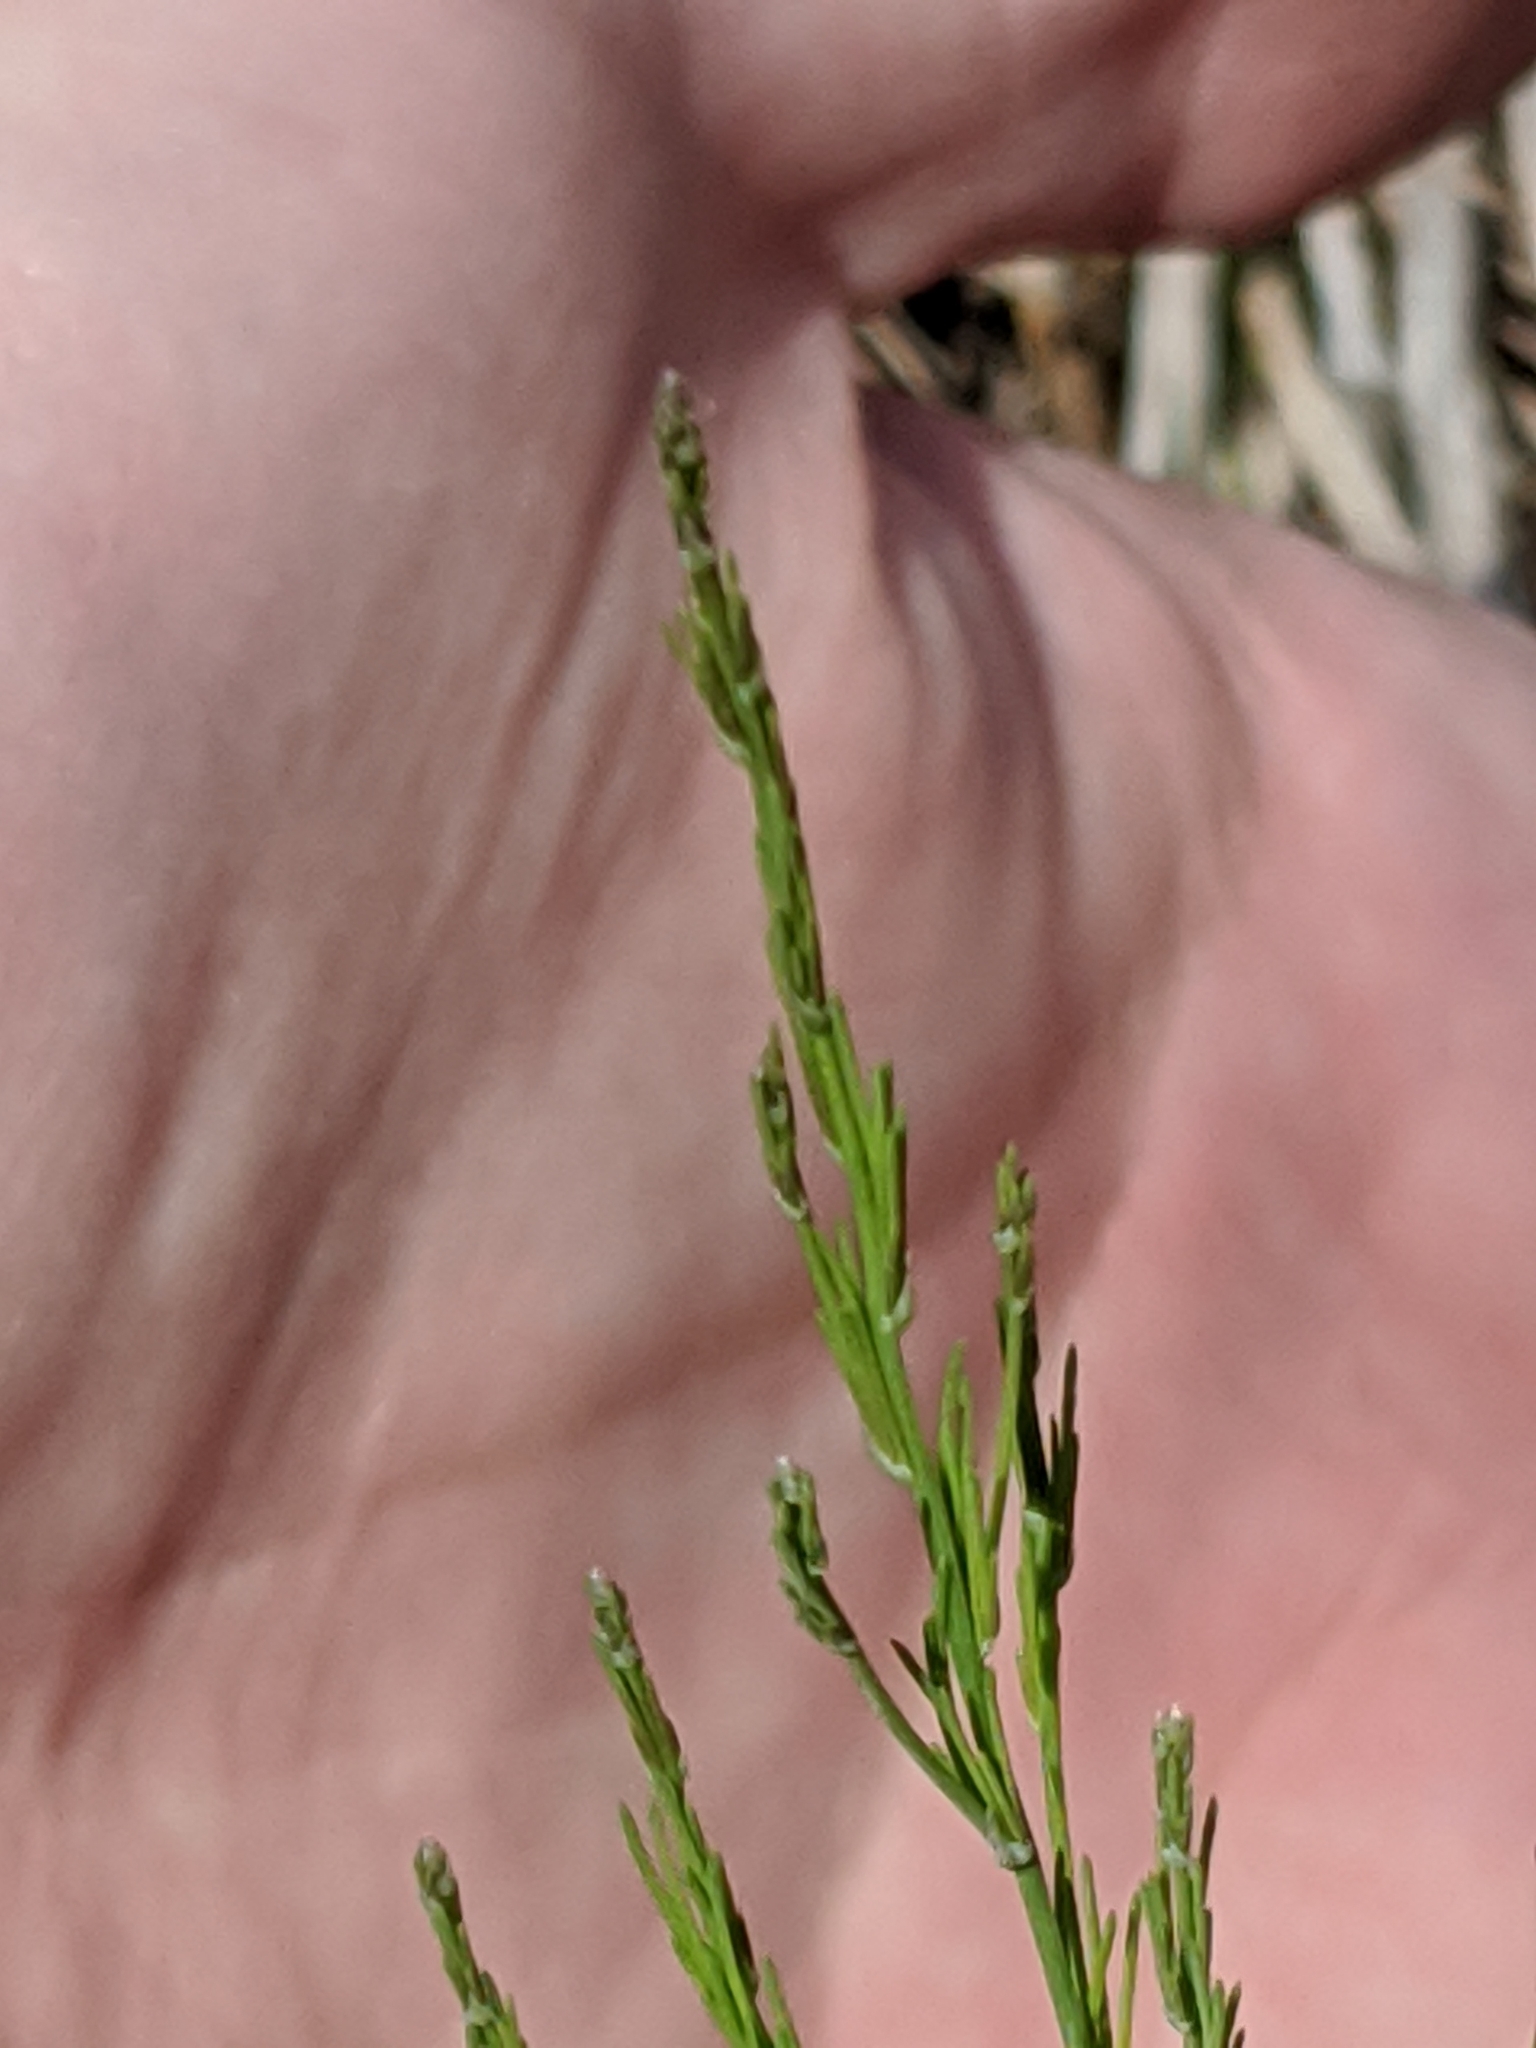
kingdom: Plantae
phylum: Tracheophyta
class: Liliopsida
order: Asparagales
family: Asparagaceae
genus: Asparagus
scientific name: Asparagus officinalis
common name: Garden asparagus
